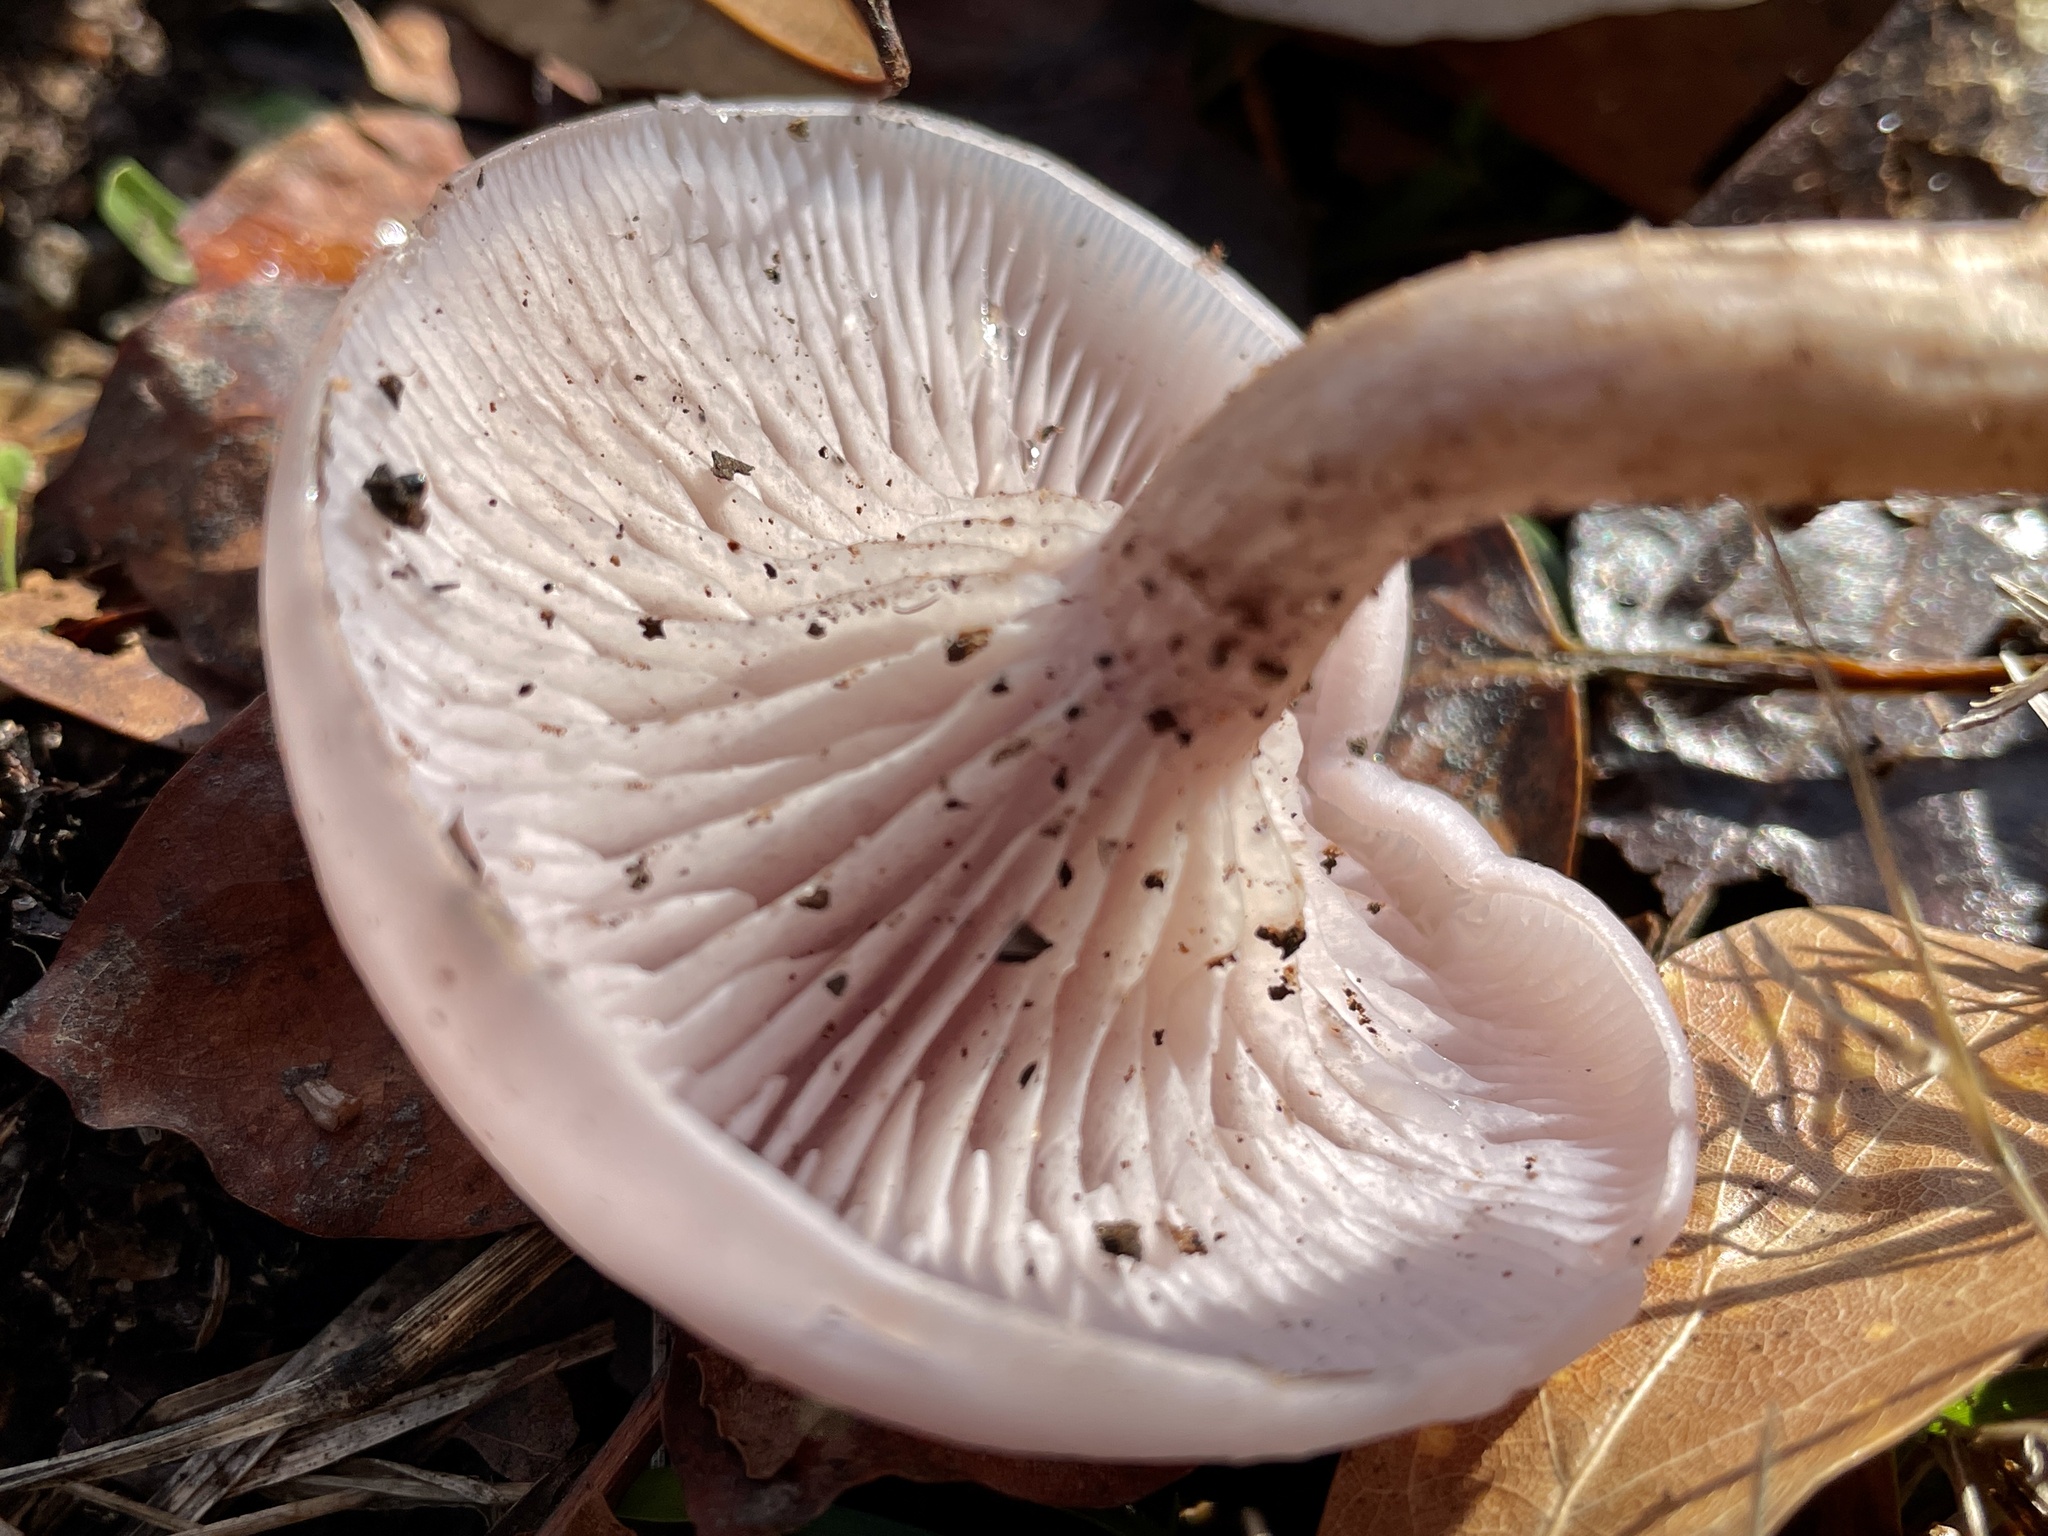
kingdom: Fungi
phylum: Basidiomycota
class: Agaricomycetes
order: Agaricales
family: Tricholomataceae
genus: Lepista
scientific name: Lepista tarda
